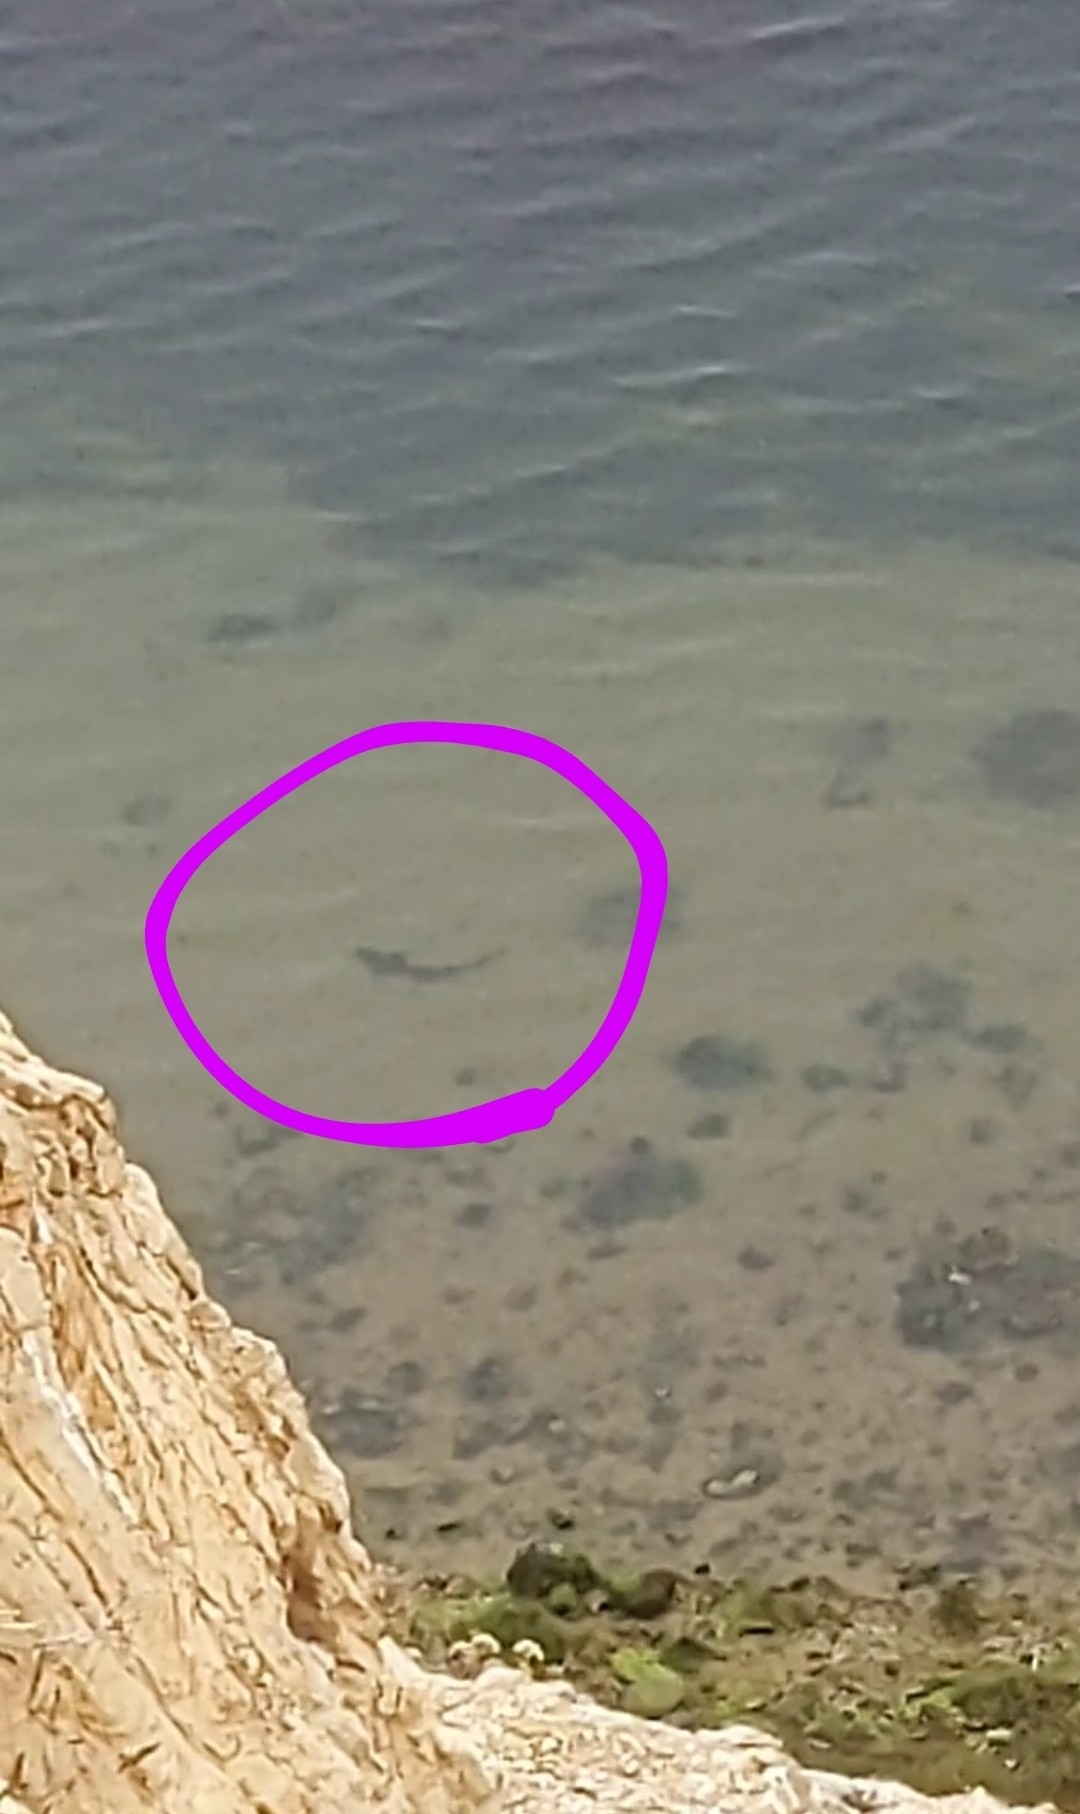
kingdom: Animalia
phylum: Chordata
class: Elasmobranchii
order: Carcharhiniformes
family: Triakidae
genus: Triakis
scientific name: Triakis semifasciata
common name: Leopard shark
